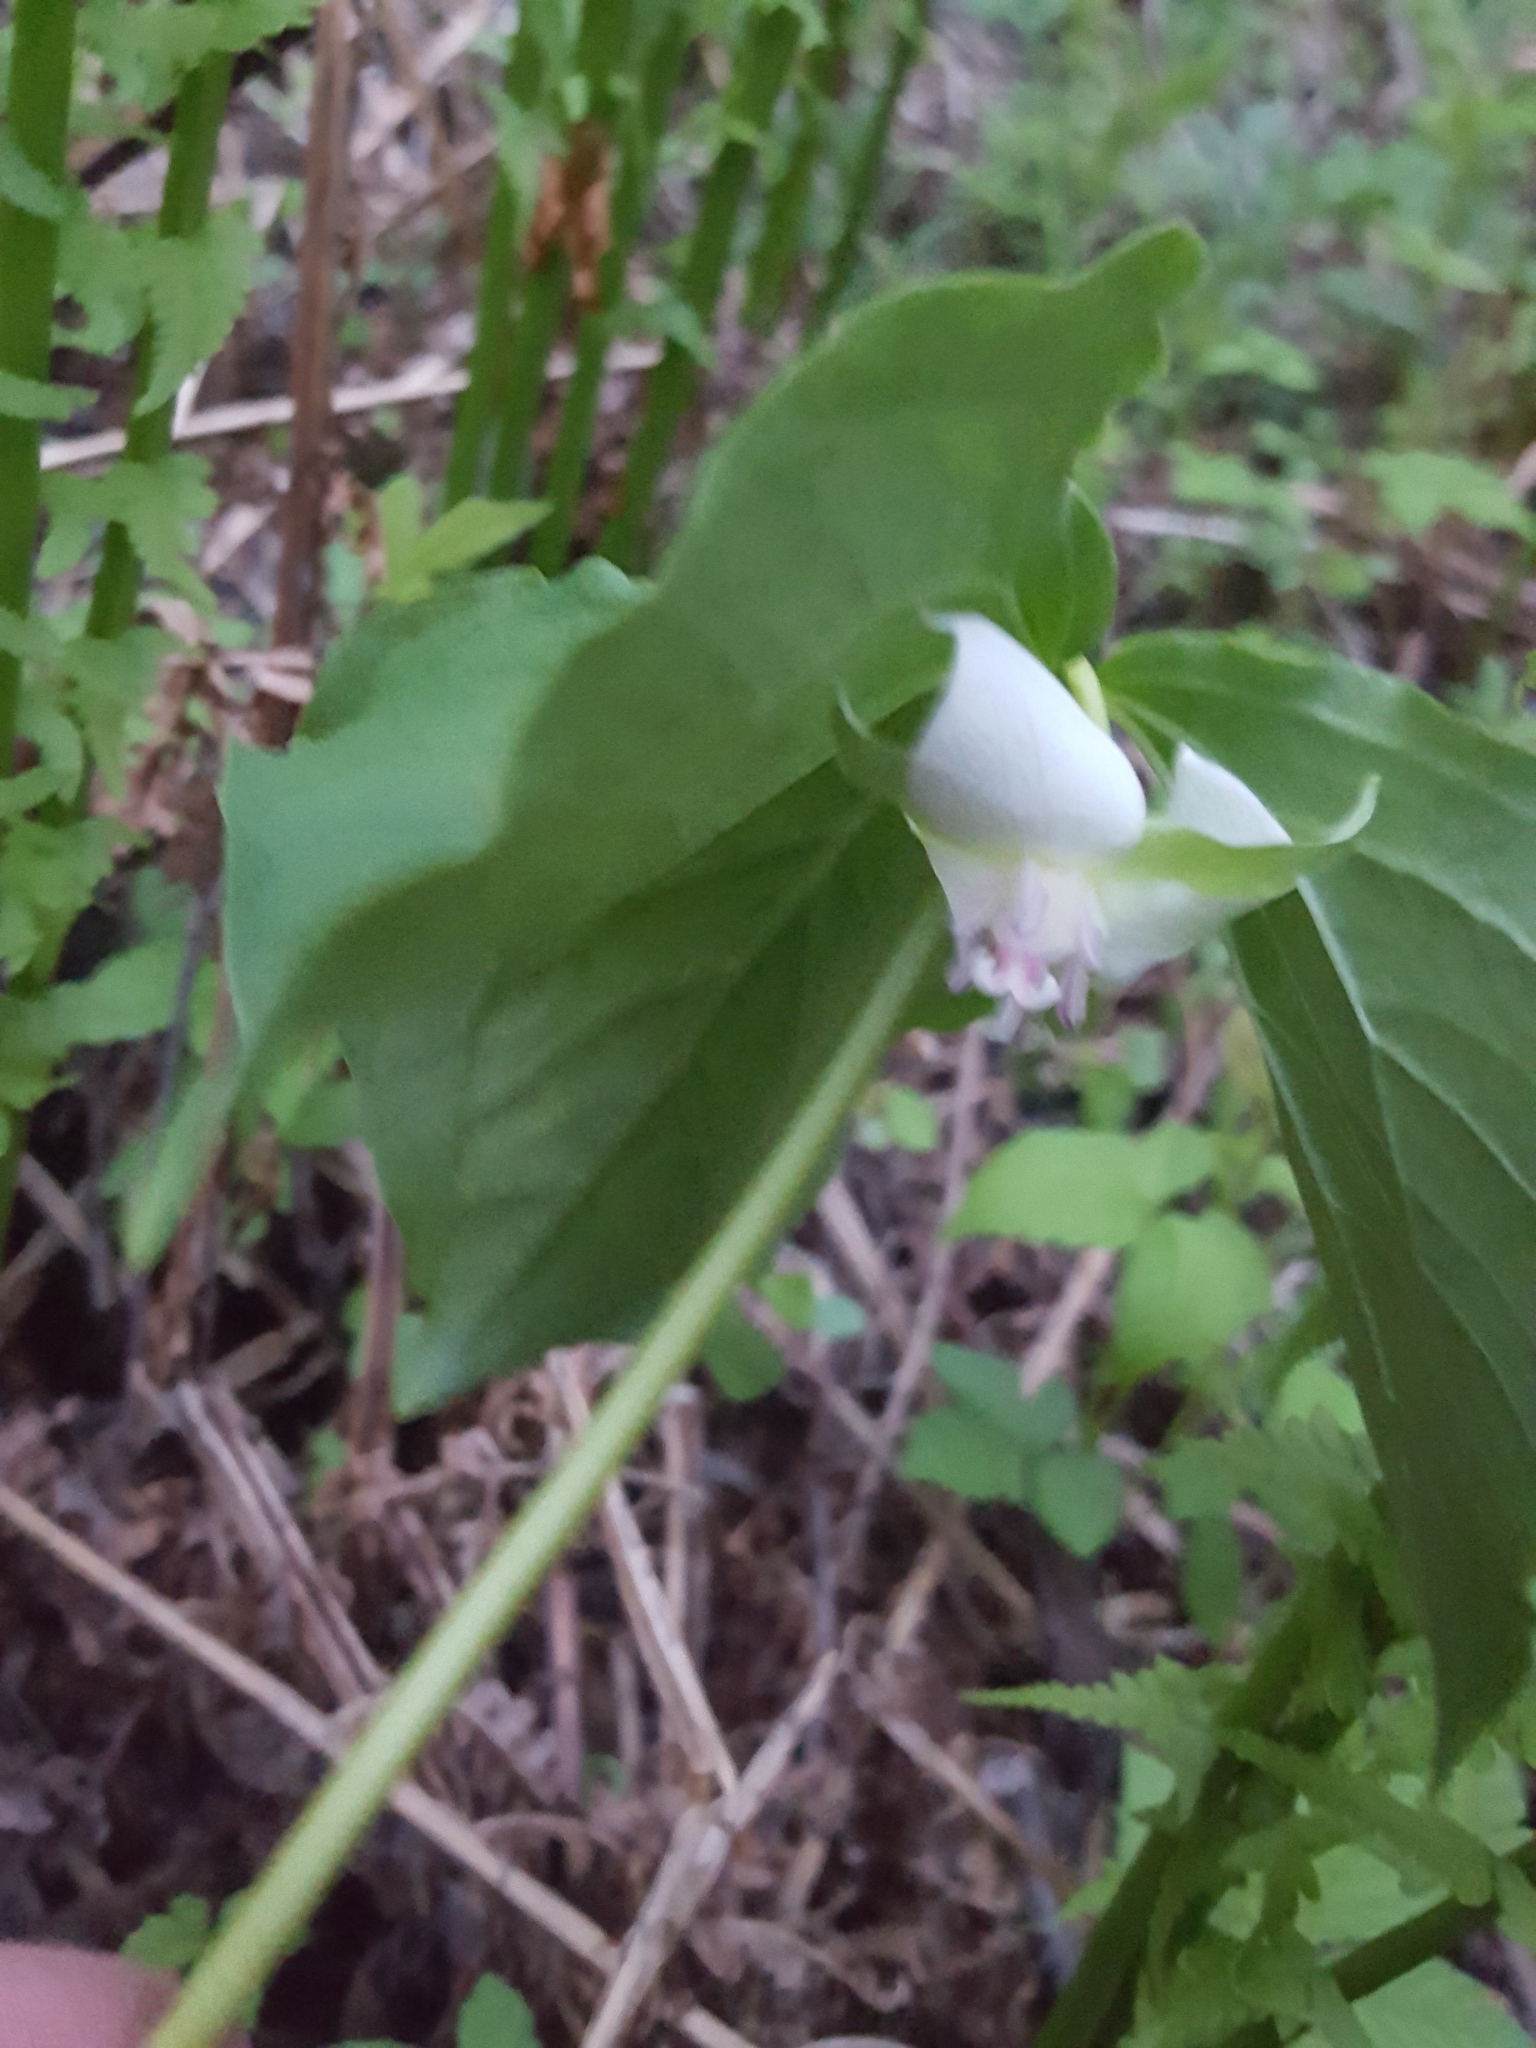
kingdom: Plantae
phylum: Tracheophyta
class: Liliopsida
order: Liliales
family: Melanthiaceae
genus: Trillium
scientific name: Trillium cernuum
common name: Nodding trillium
